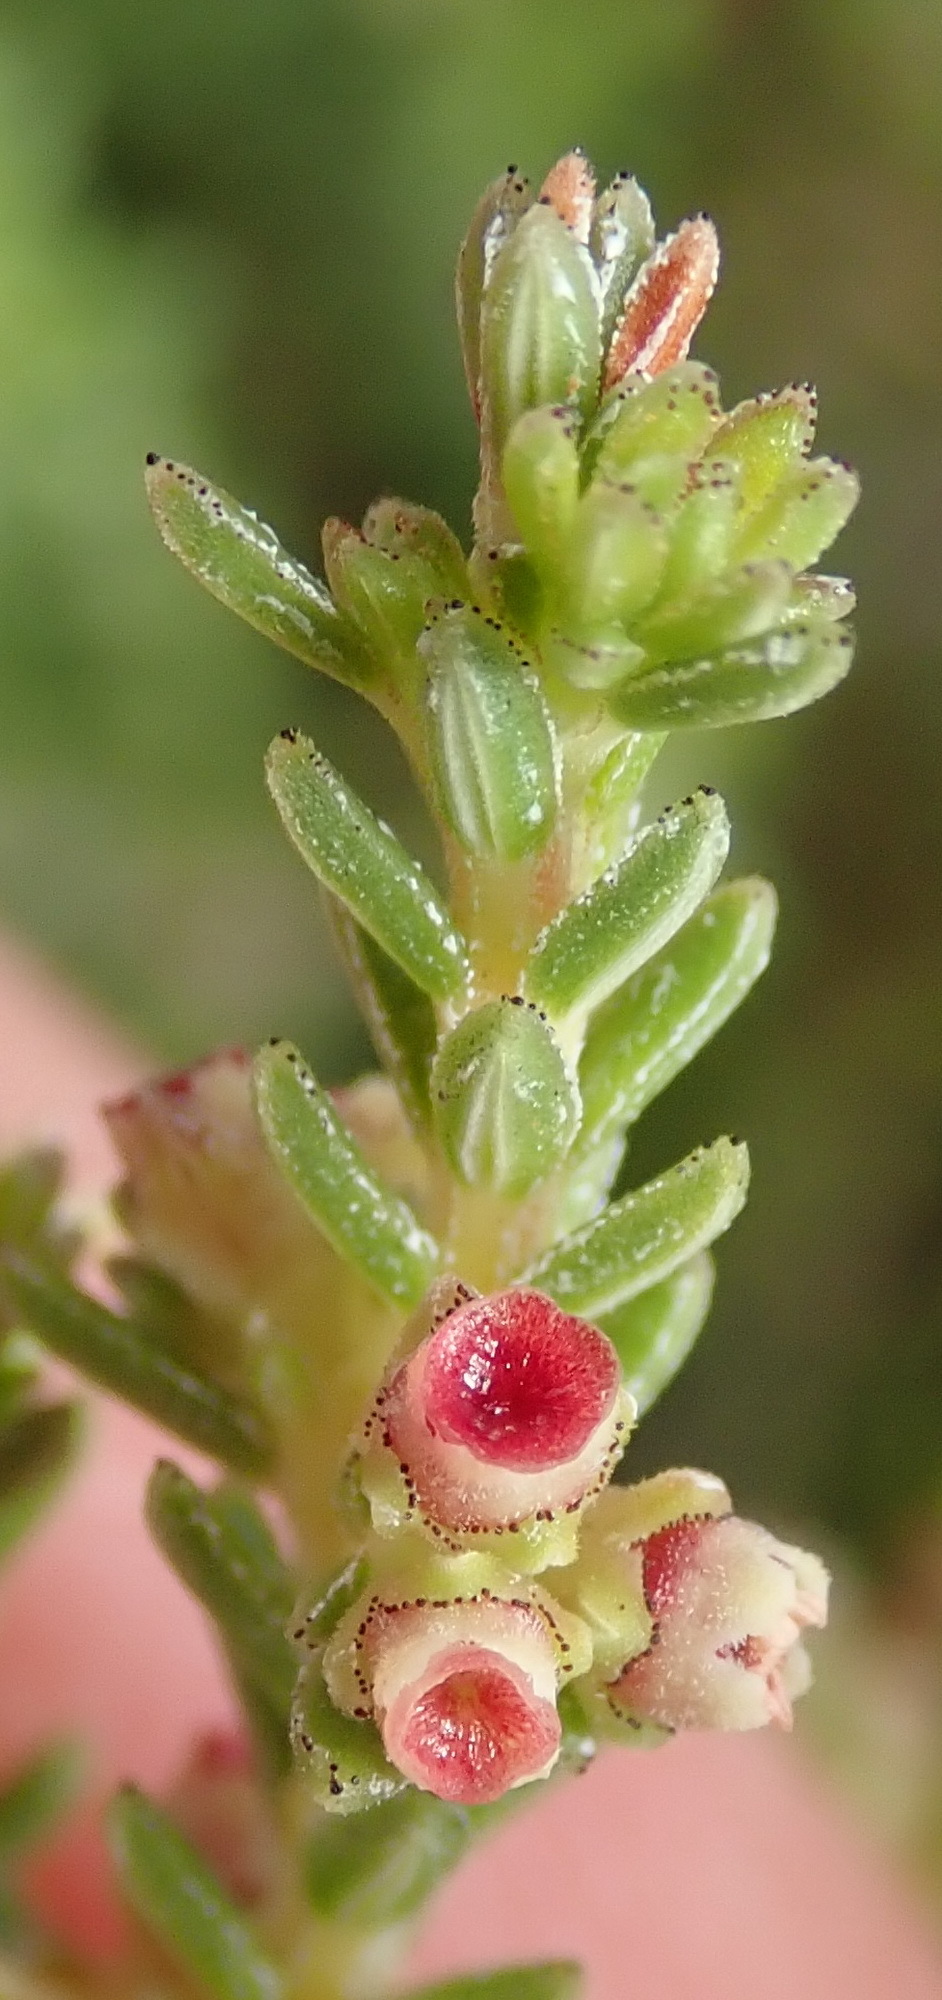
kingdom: Plantae
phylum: Tracheophyta
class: Magnoliopsida
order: Ericales
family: Ericaceae
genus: Erica
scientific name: Erica serrata
